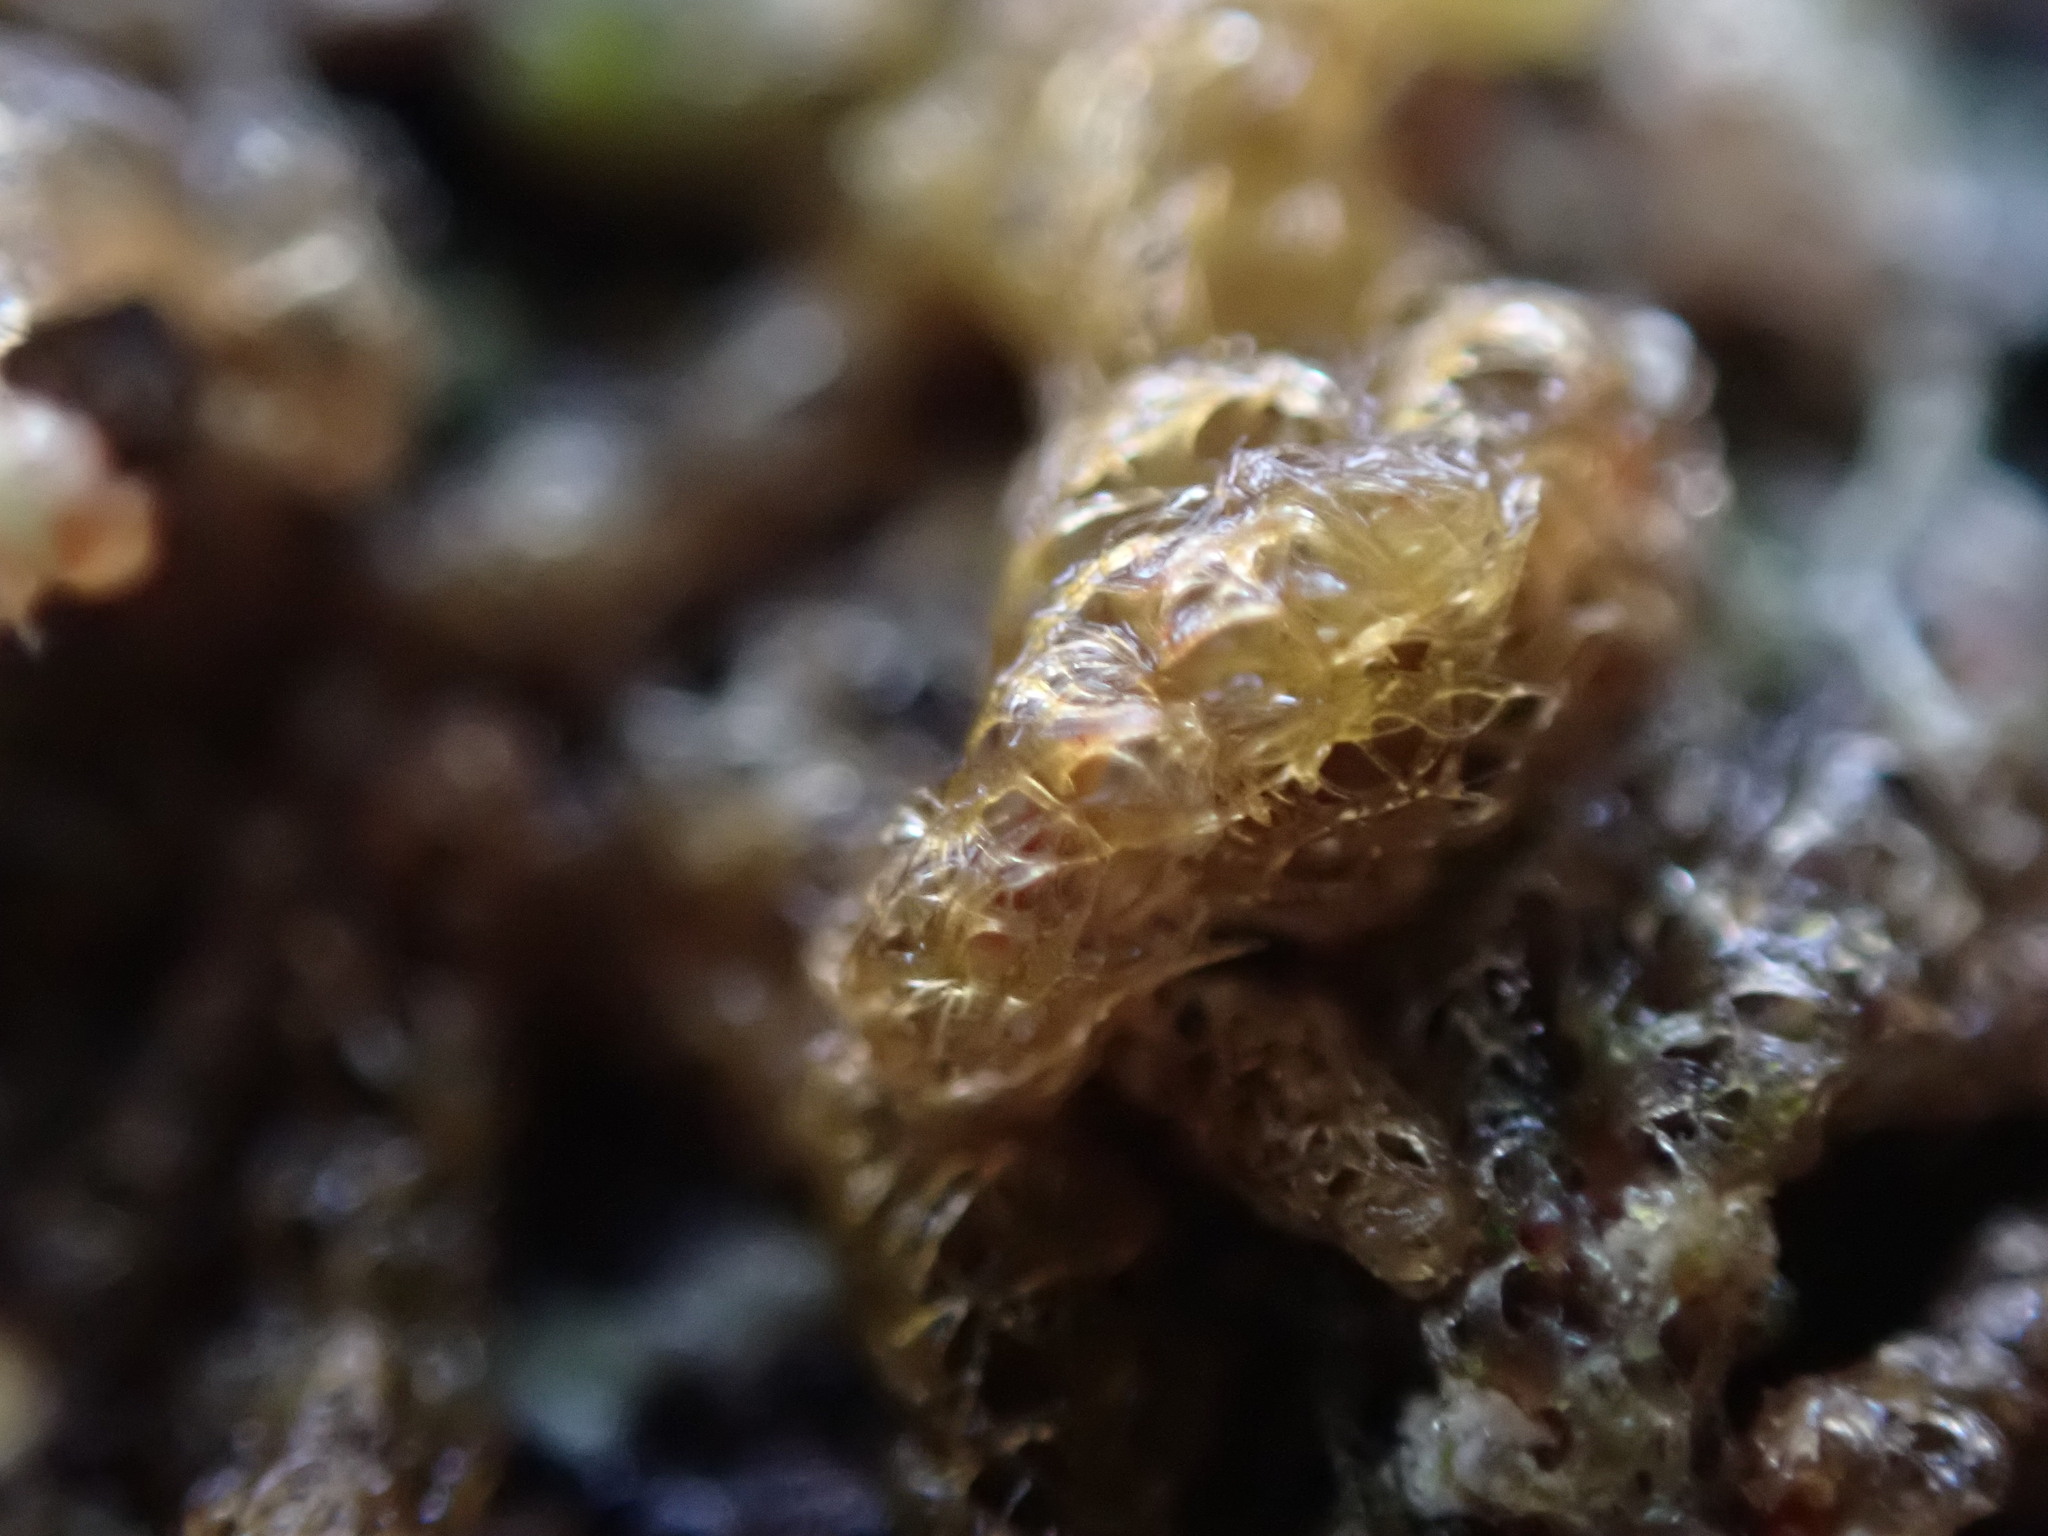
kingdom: Plantae
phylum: Marchantiophyta
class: Jungermanniopsida
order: Ptilidiales
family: Ptilidiaceae
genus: Ptilidium
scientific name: Ptilidium californicum
